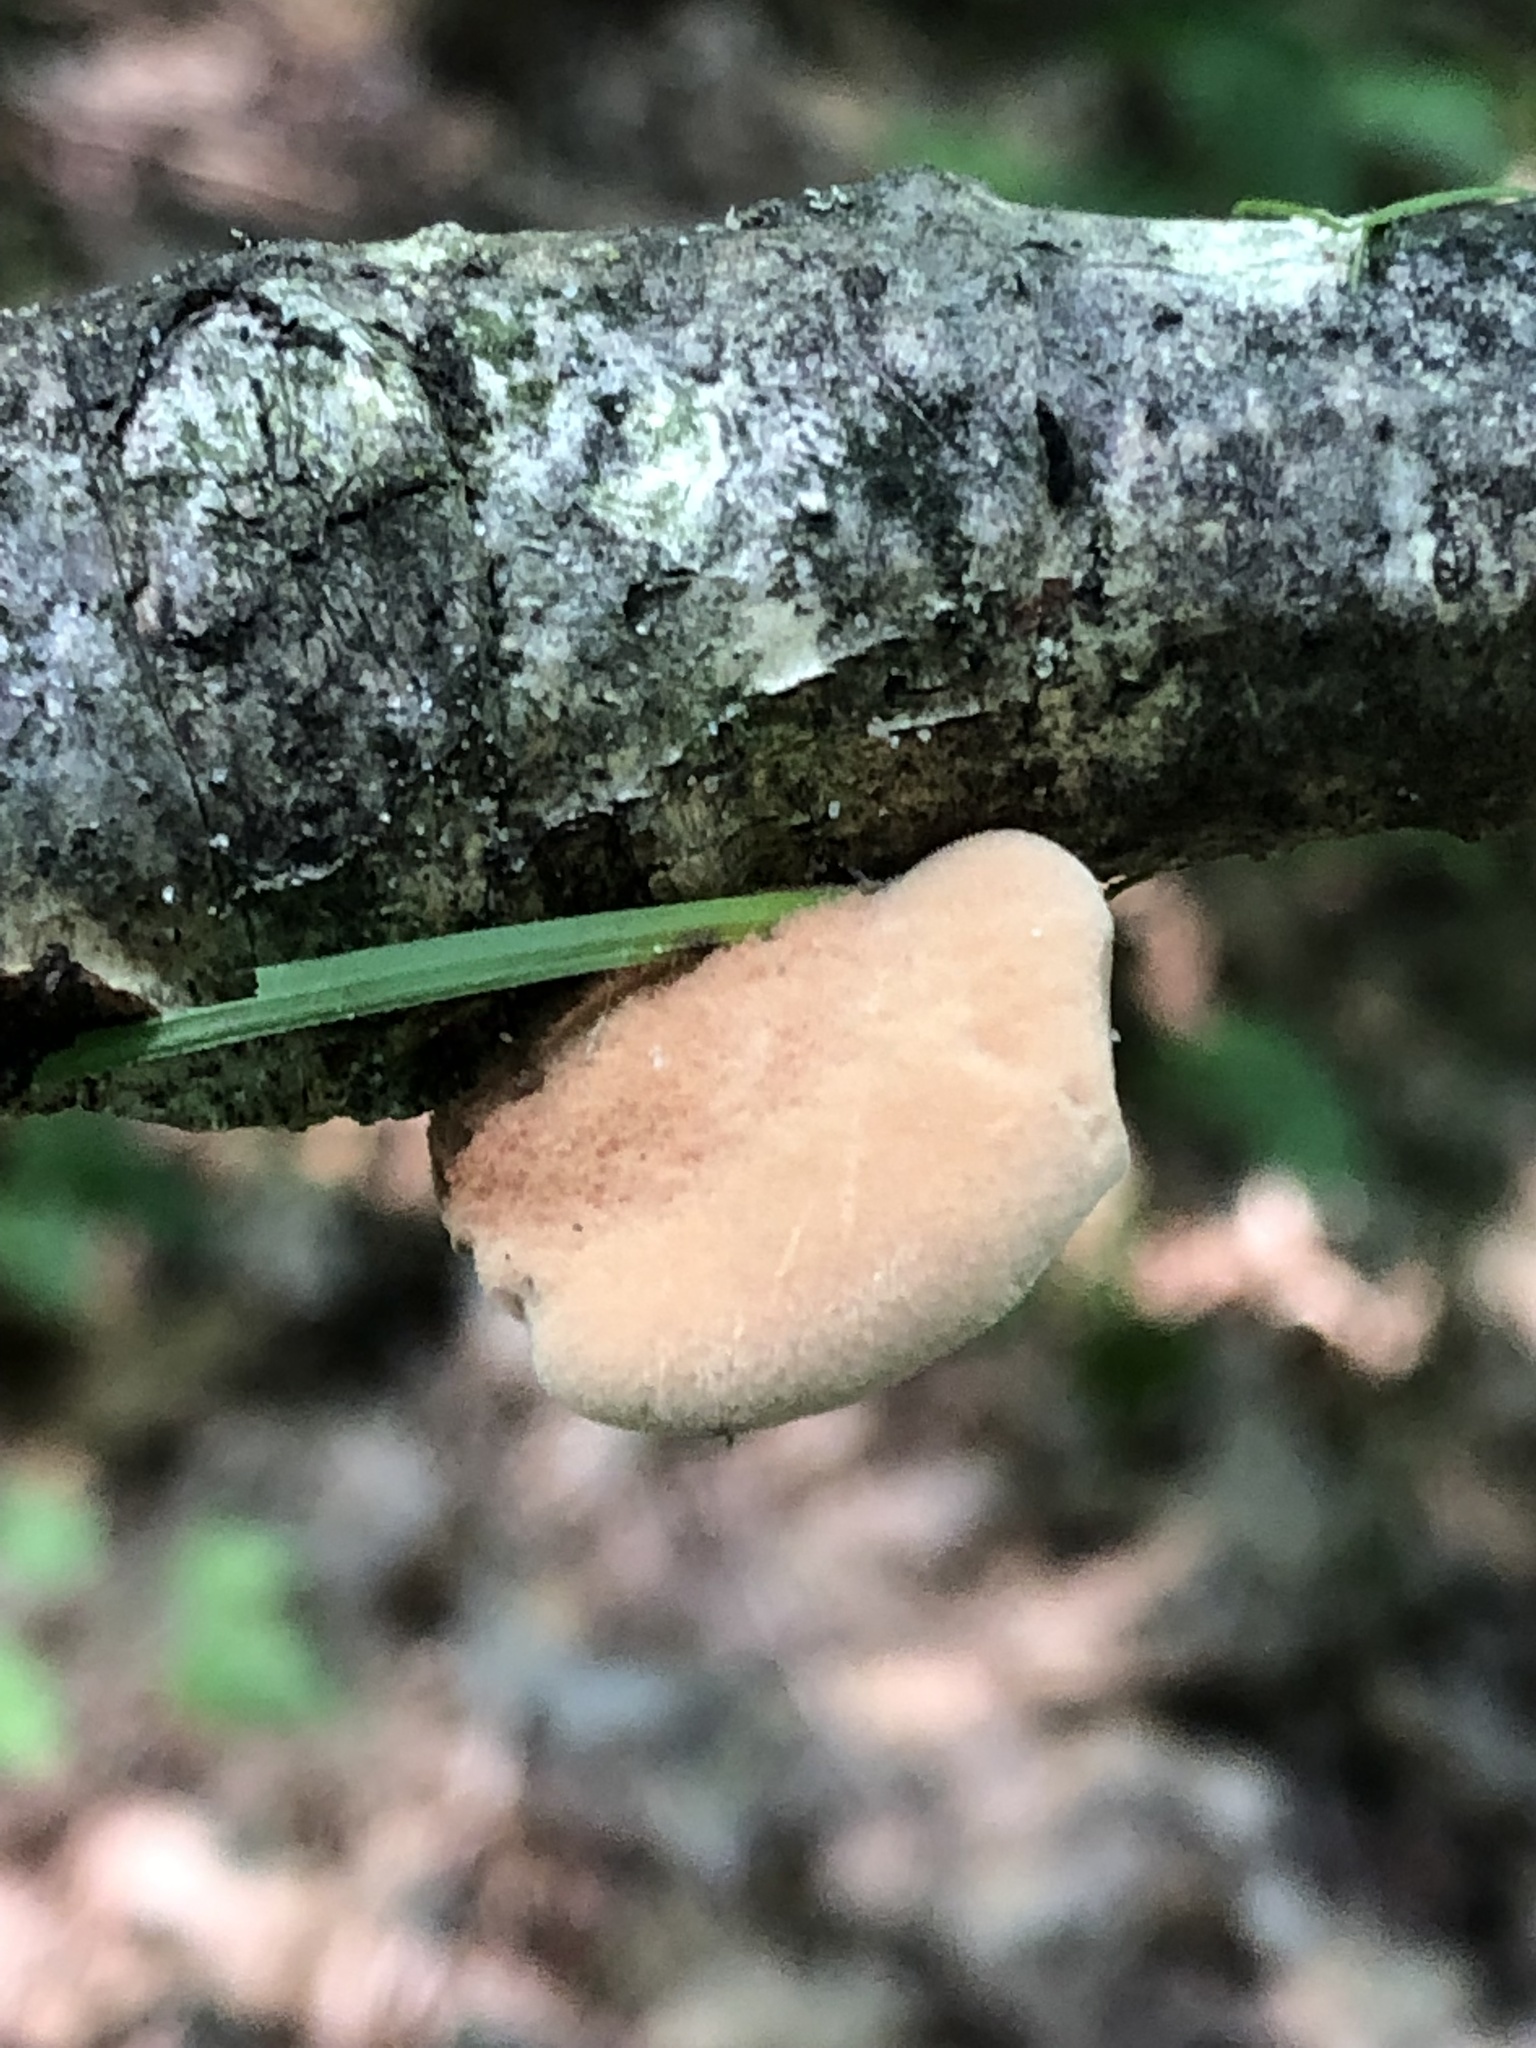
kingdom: Fungi
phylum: Basidiomycota
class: Agaricomycetes
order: Polyporales
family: Phanerochaetaceae
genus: Hapalopilus
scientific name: Hapalopilus rutilans
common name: Tender nesting polypore
